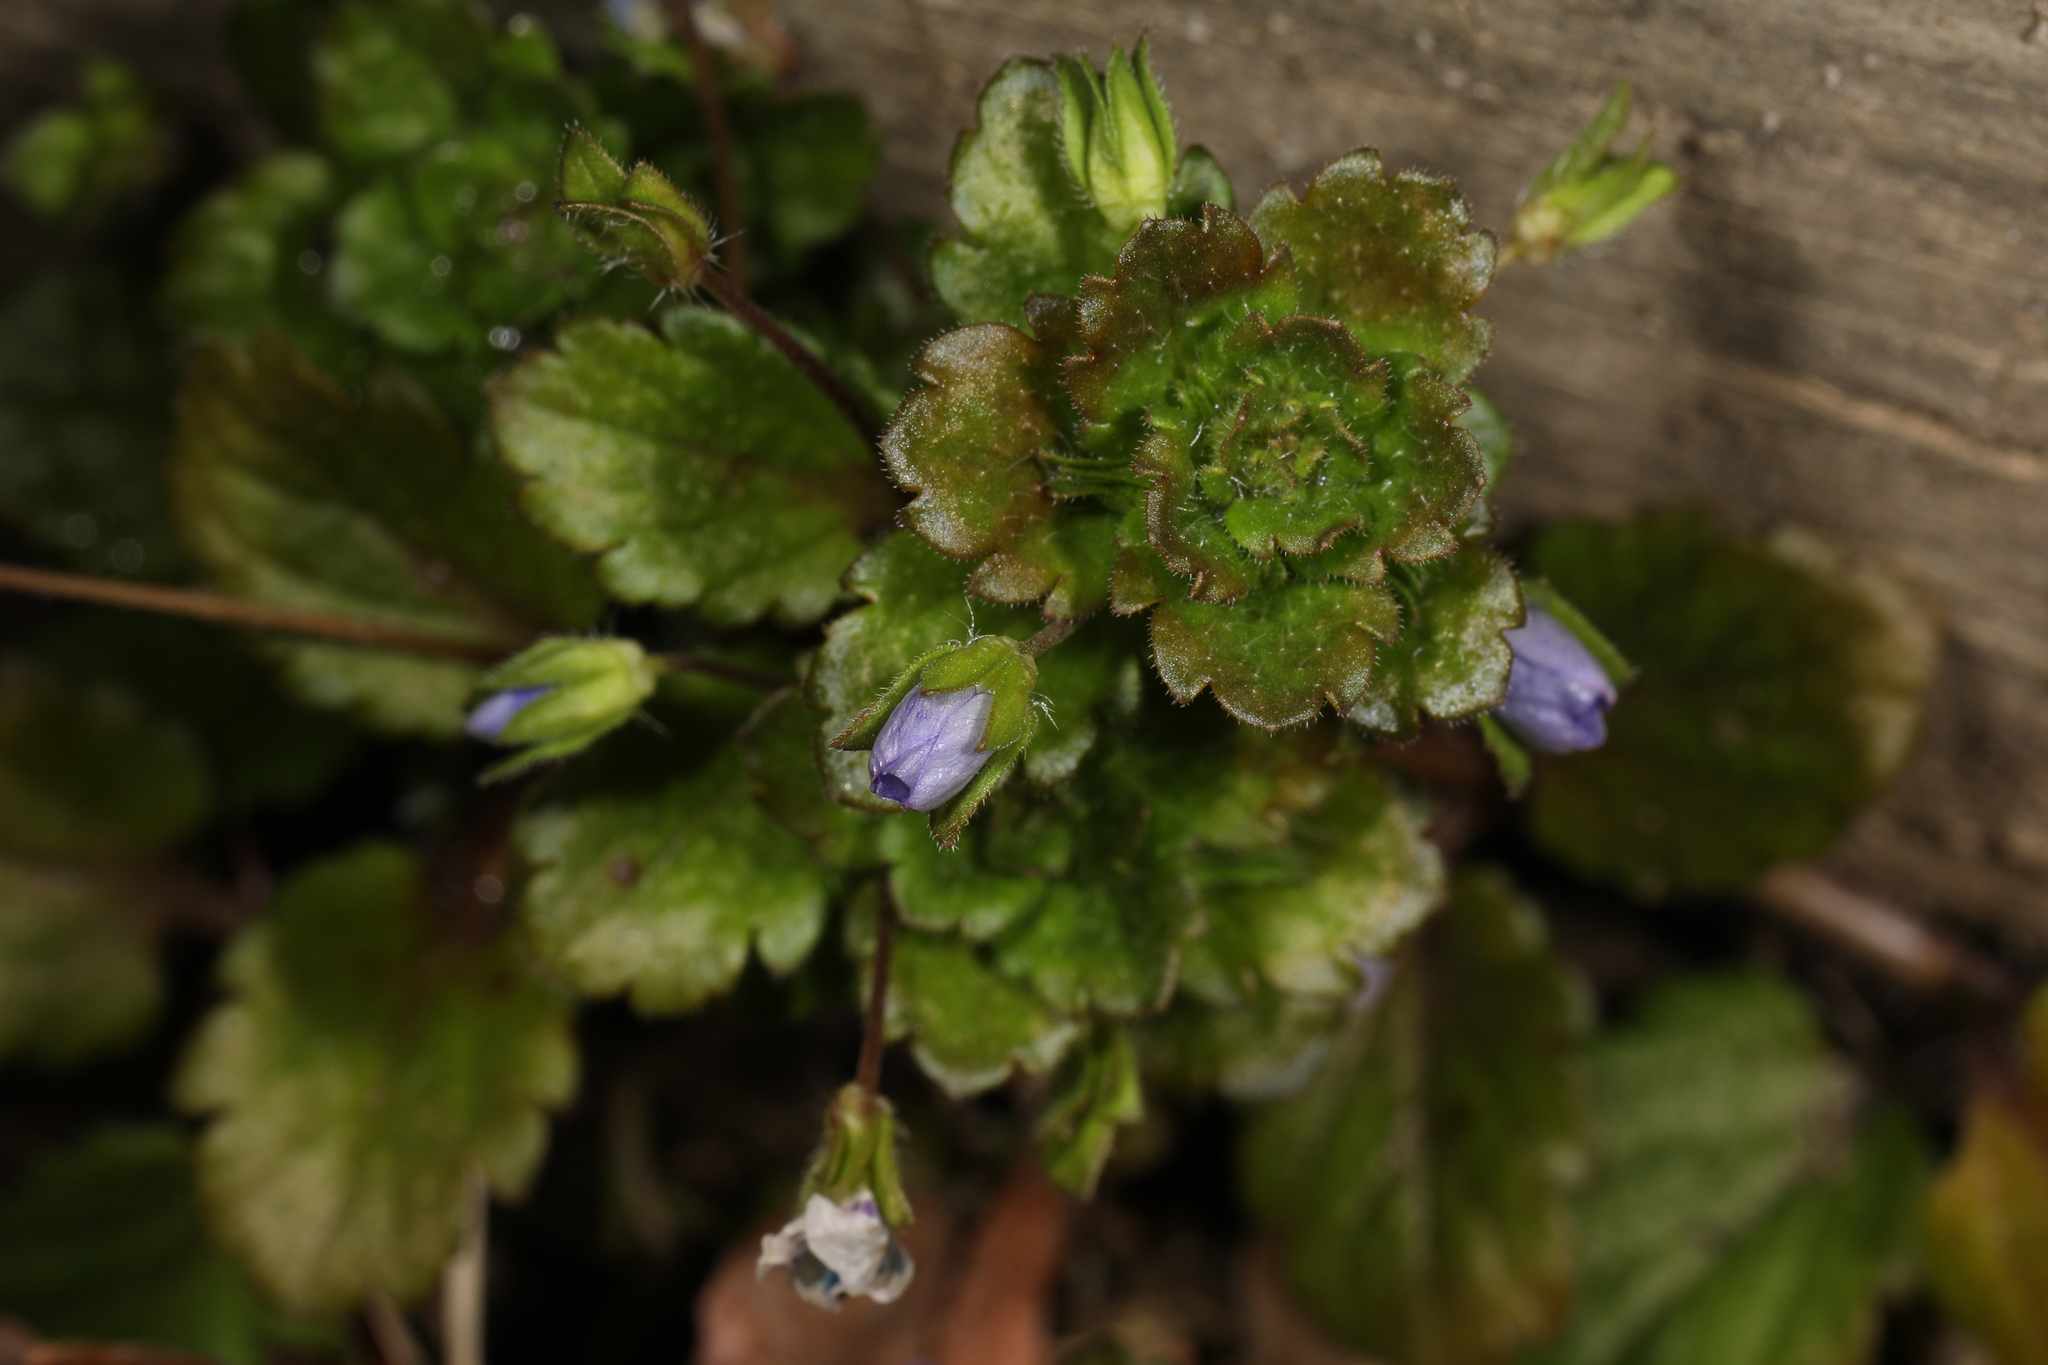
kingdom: Plantae
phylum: Tracheophyta
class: Magnoliopsida
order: Lamiales
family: Plantaginaceae
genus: Veronica
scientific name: Veronica persica
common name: Common field-speedwell
